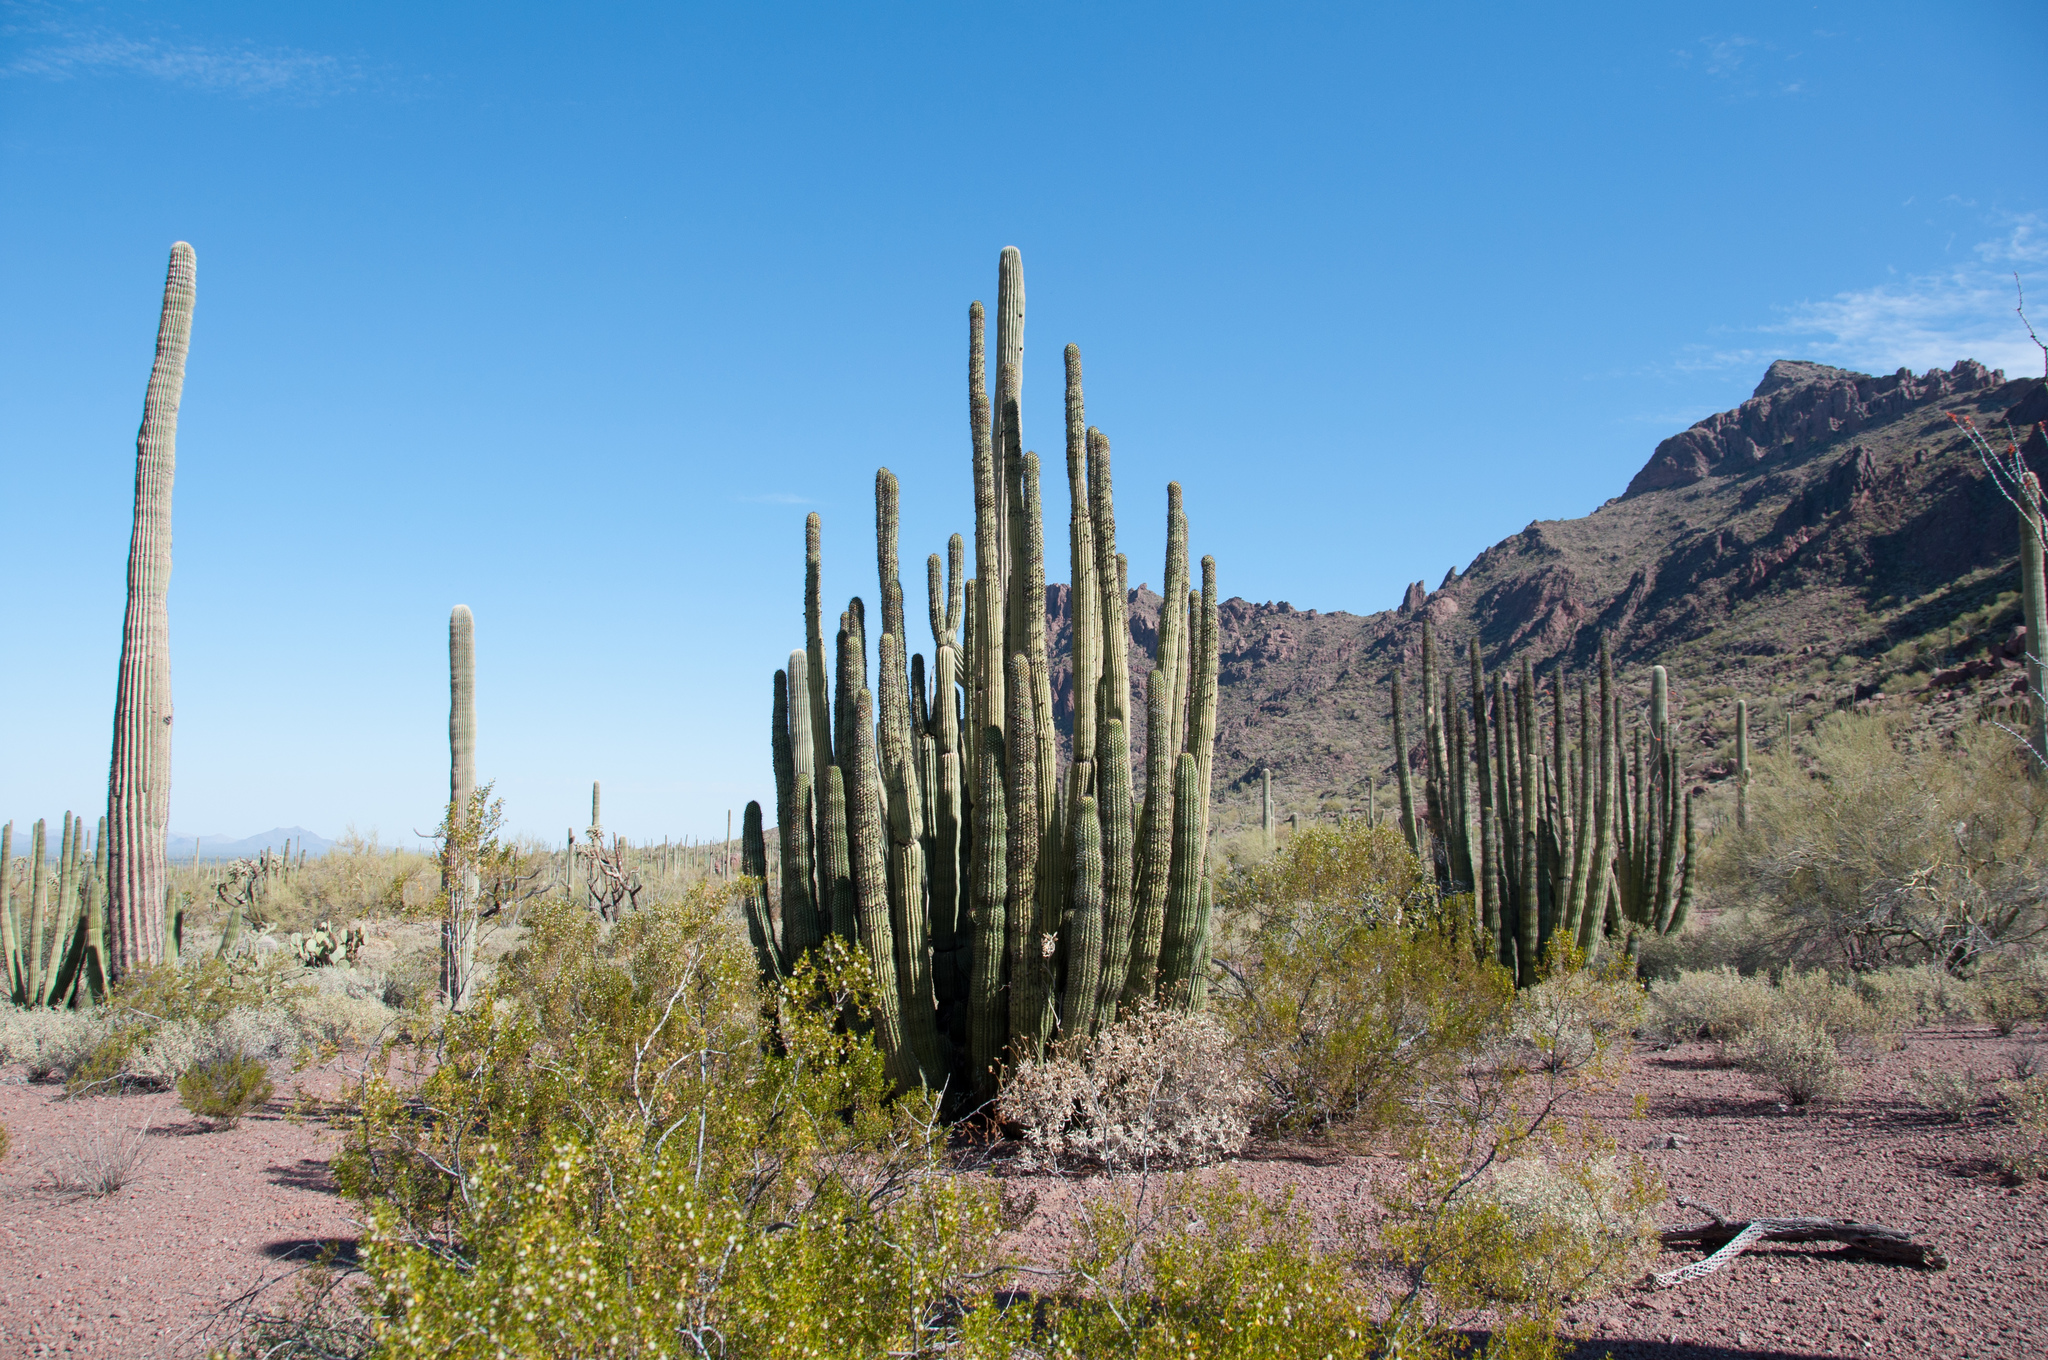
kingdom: Plantae
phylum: Tracheophyta
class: Magnoliopsida
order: Caryophyllales
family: Cactaceae
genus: Stenocereus
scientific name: Stenocereus thurberi
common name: Organ pipe cactus
